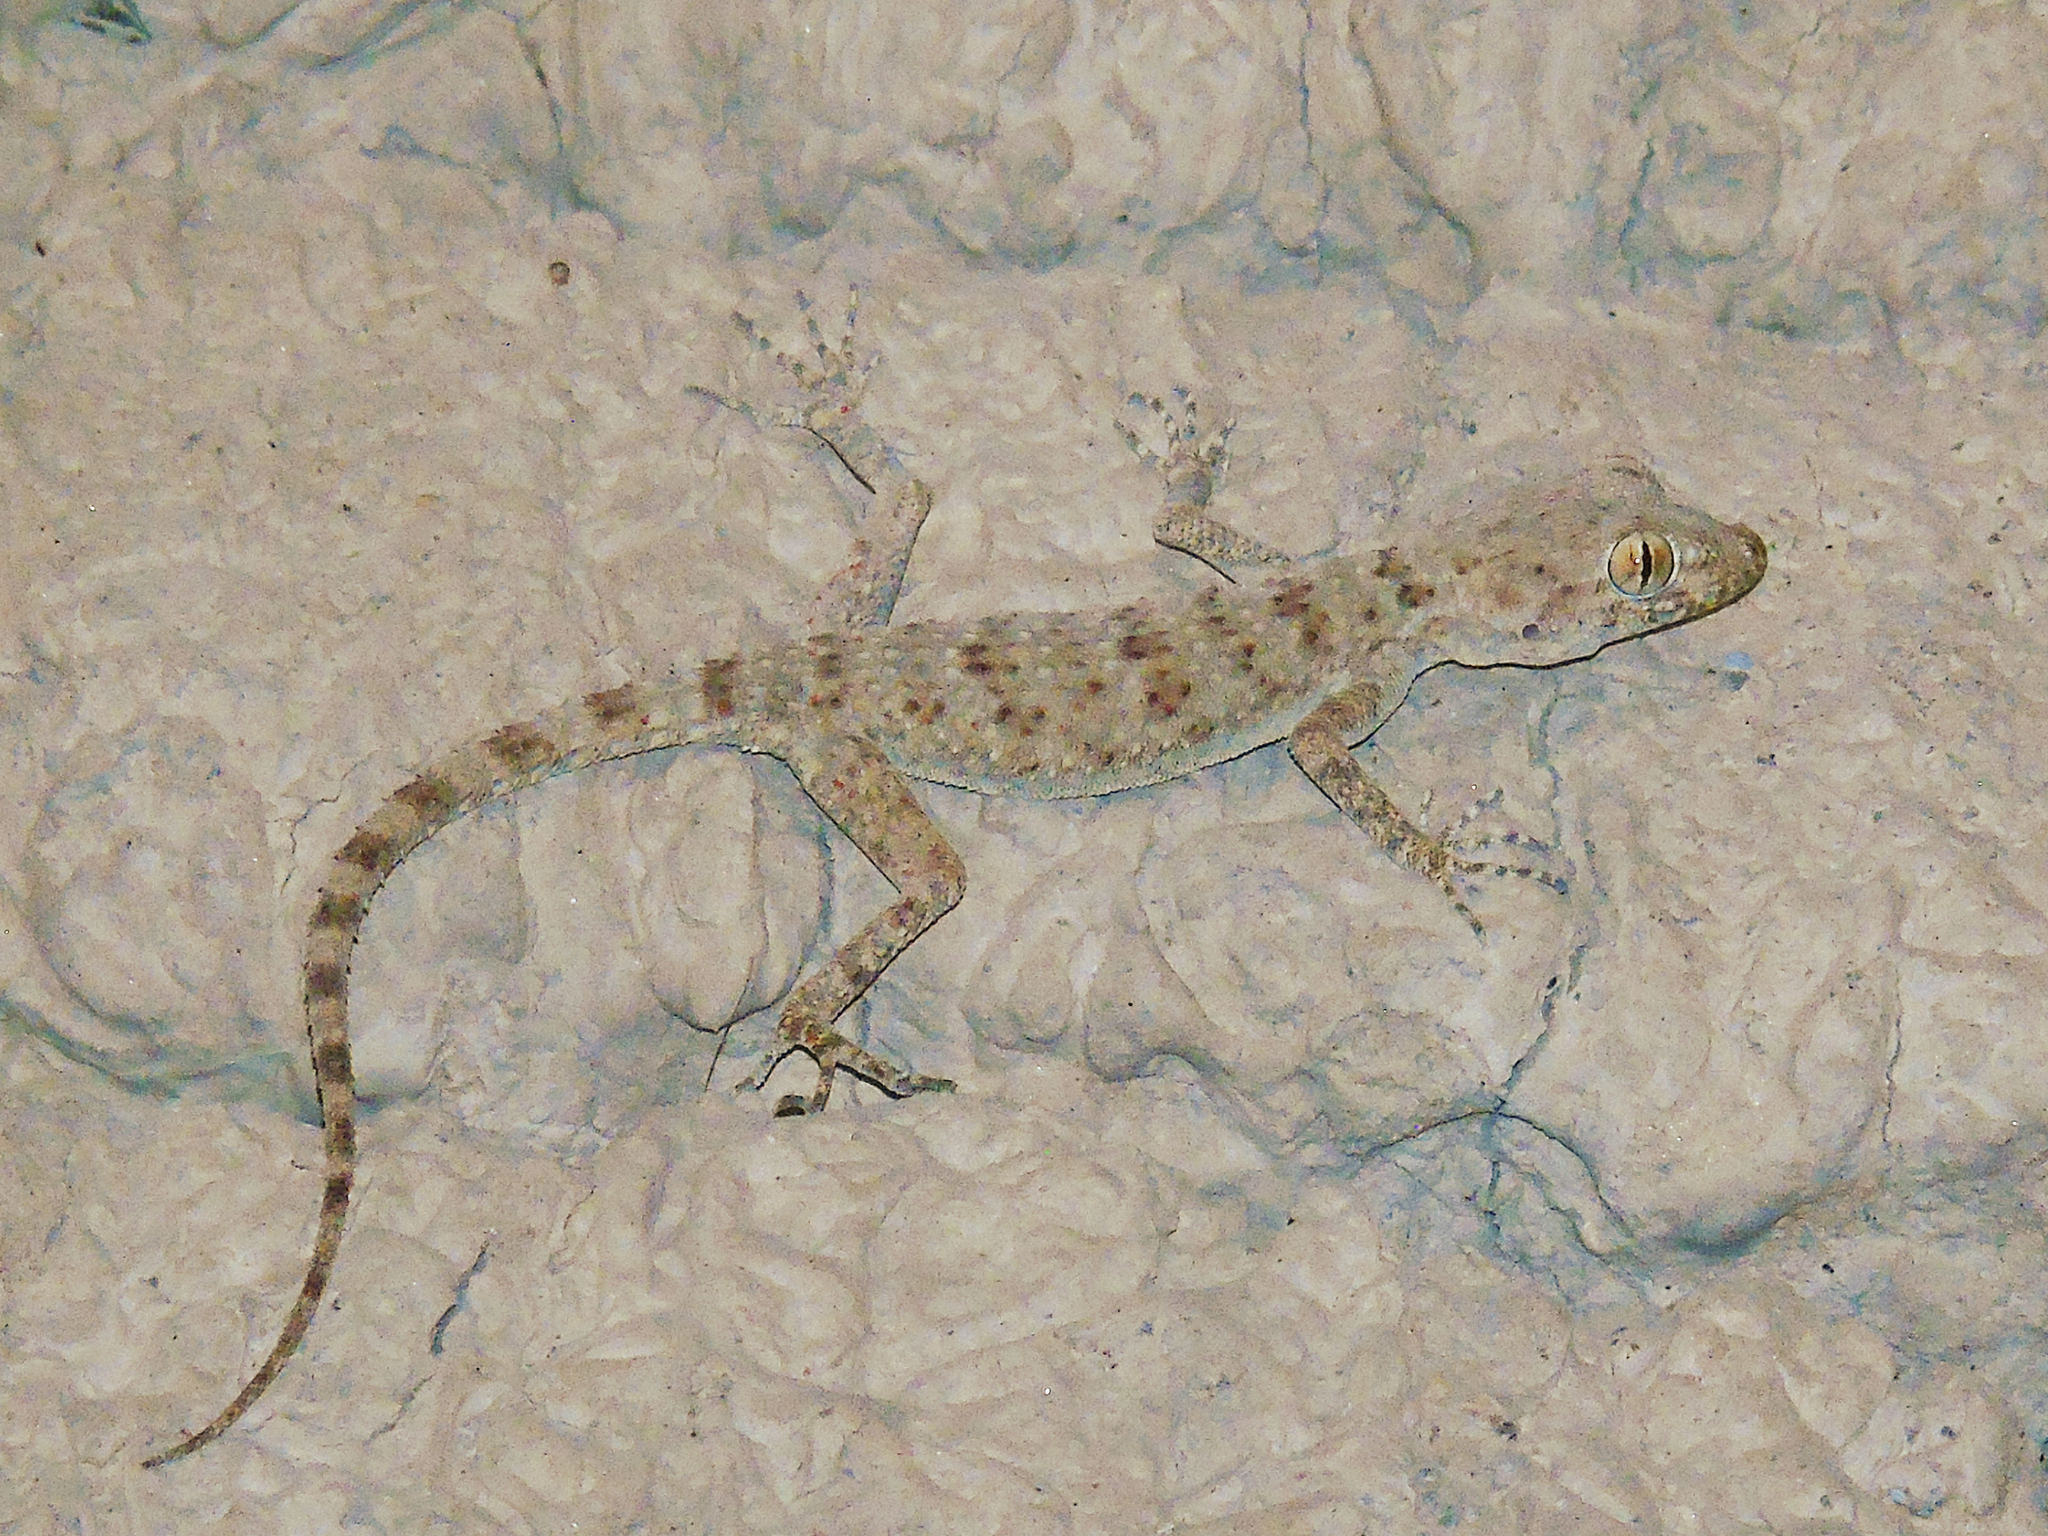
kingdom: Animalia
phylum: Chordata
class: Squamata
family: Gekkonidae
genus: Tenuidactylus
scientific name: Tenuidactylus bogdanovi
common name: Bogdanov’s thin-toed gecko
